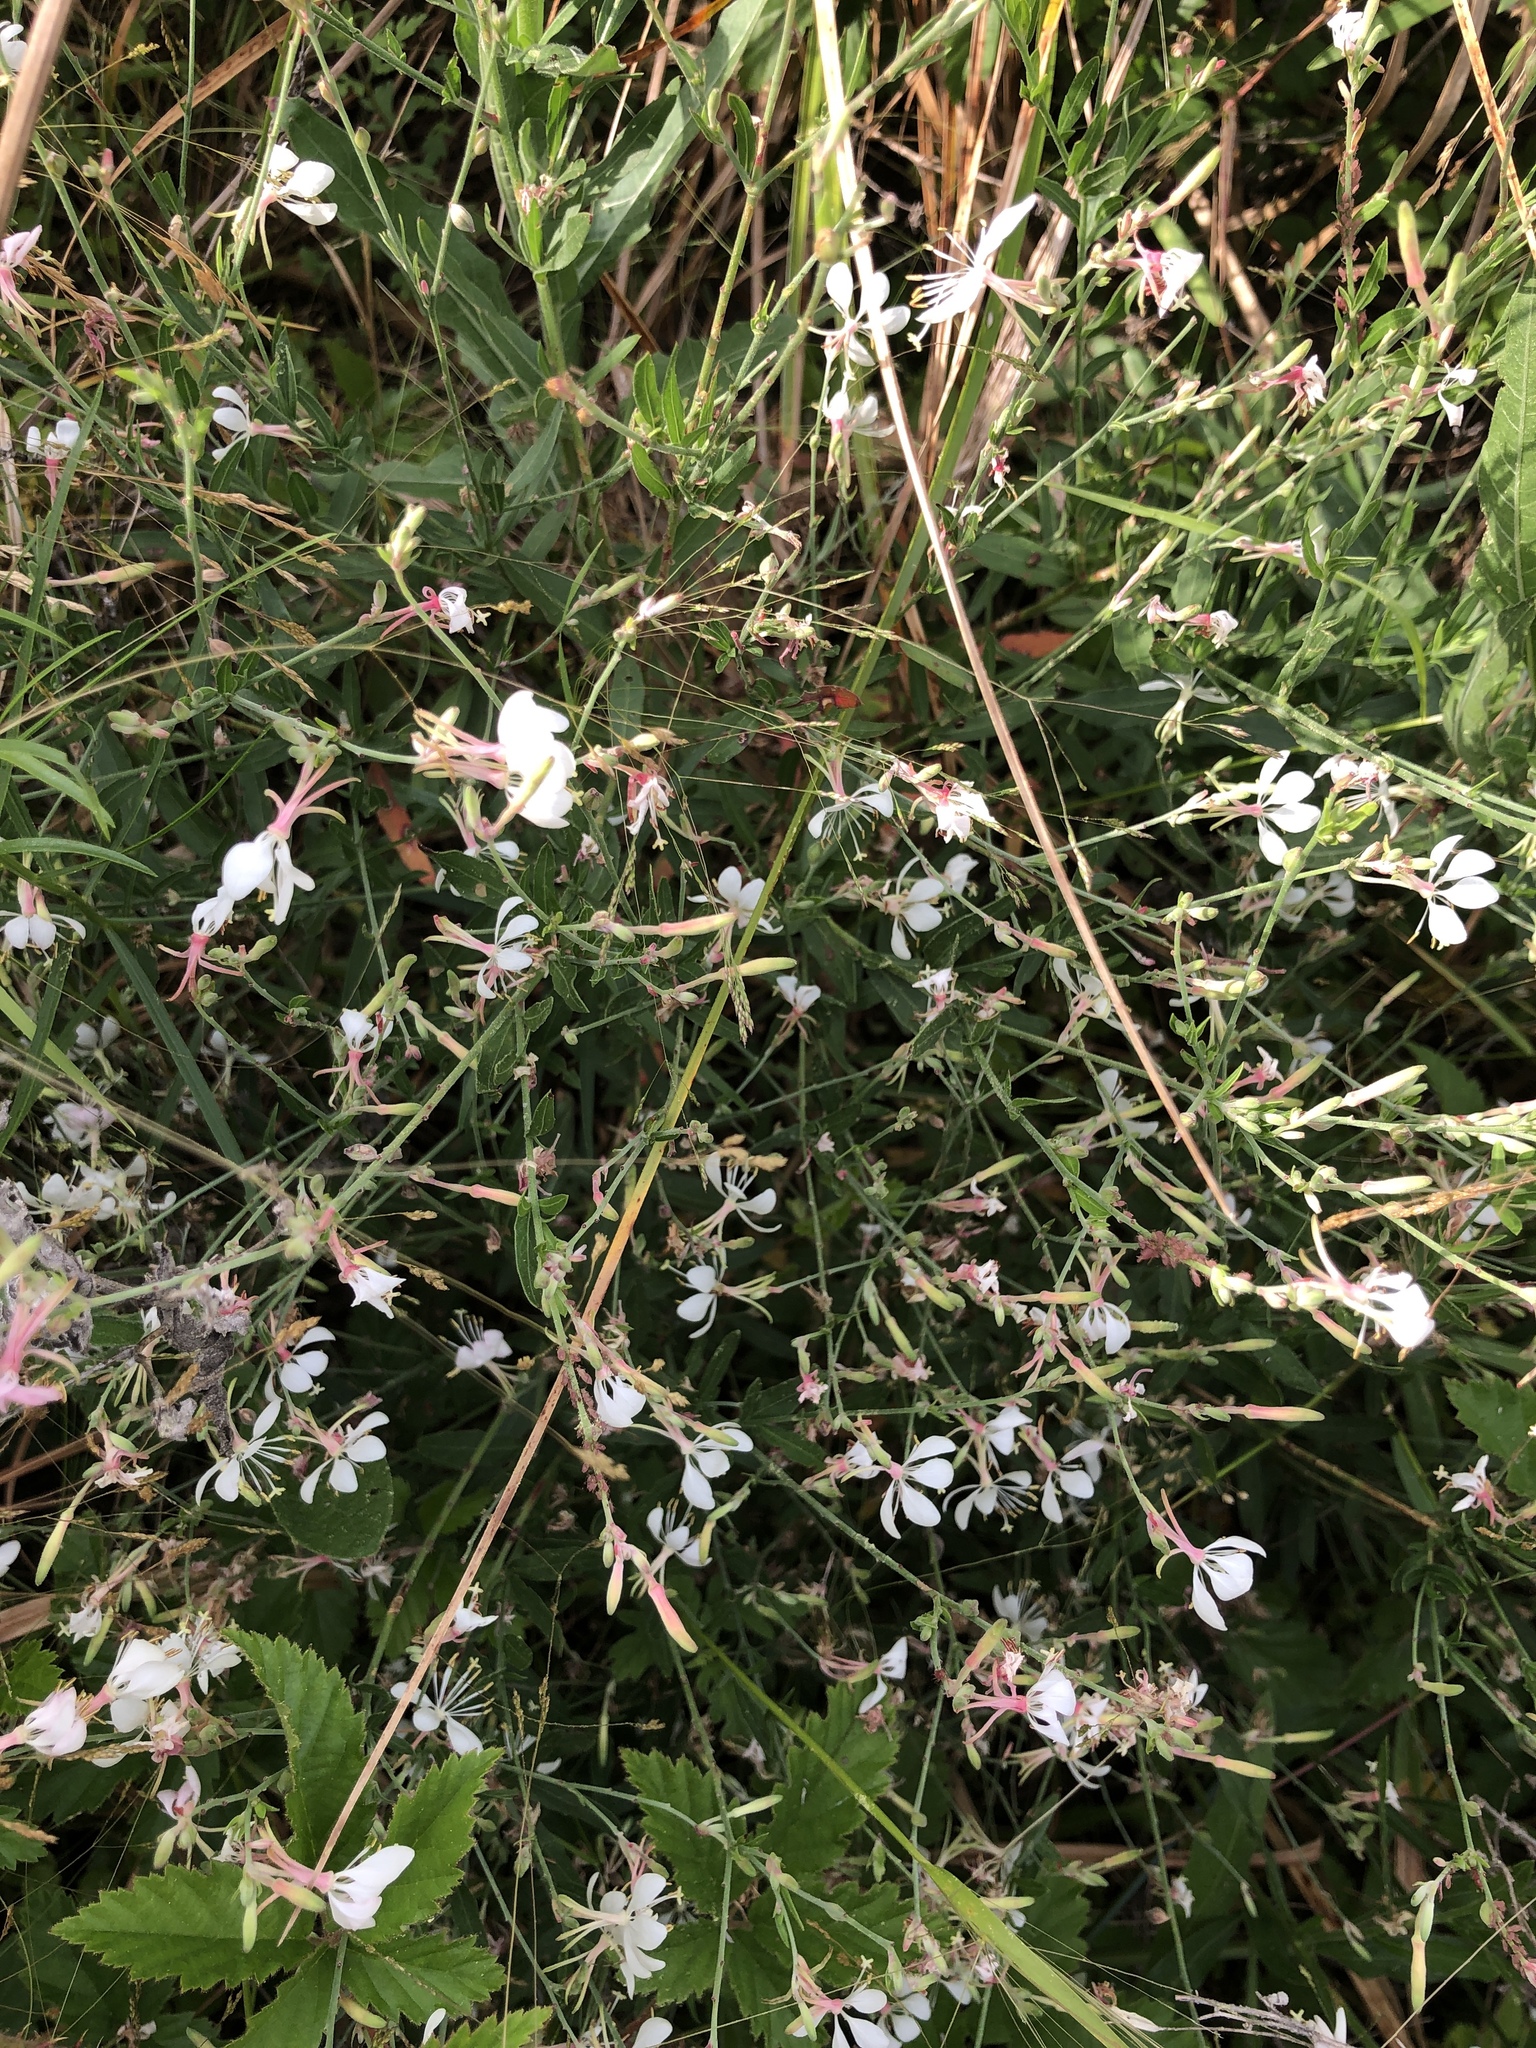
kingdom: Plantae
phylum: Tracheophyta
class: Magnoliopsida
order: Myrtales
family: Onagraceae
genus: Oenothera
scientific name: Oenothera lindheimeri
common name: Lindheimer's beeblossom
